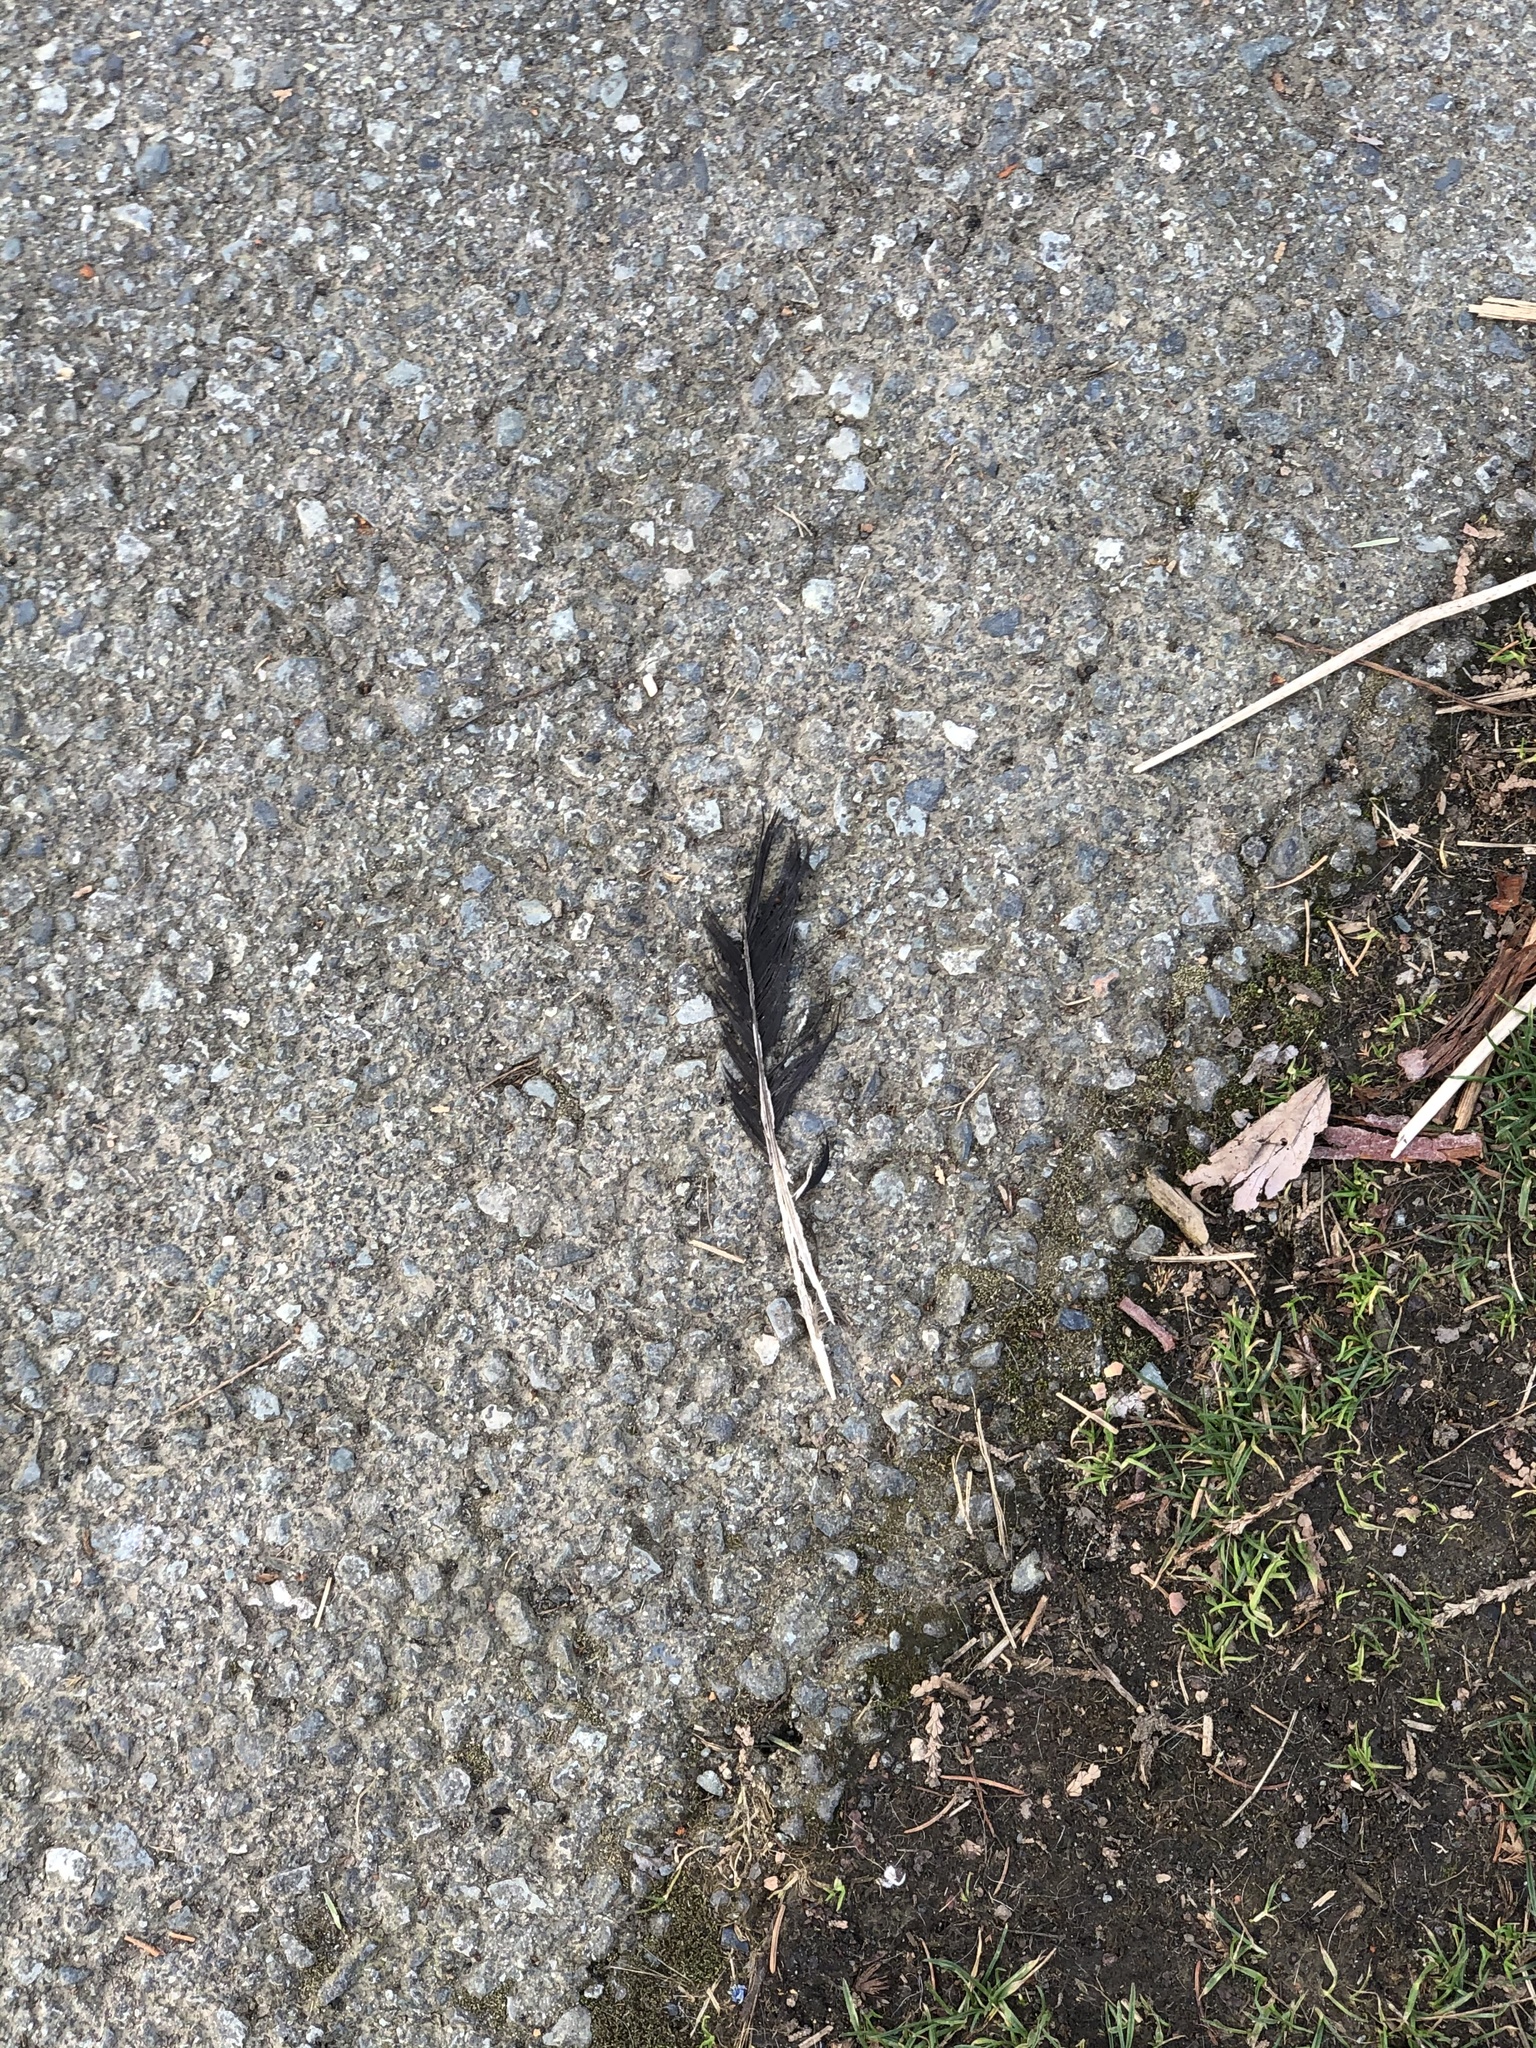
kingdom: Animalia
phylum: Chordata
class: Aves
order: Passeriformes
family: Corvidae
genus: Corvus
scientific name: Corvus brachyrhynchos
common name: American crow
